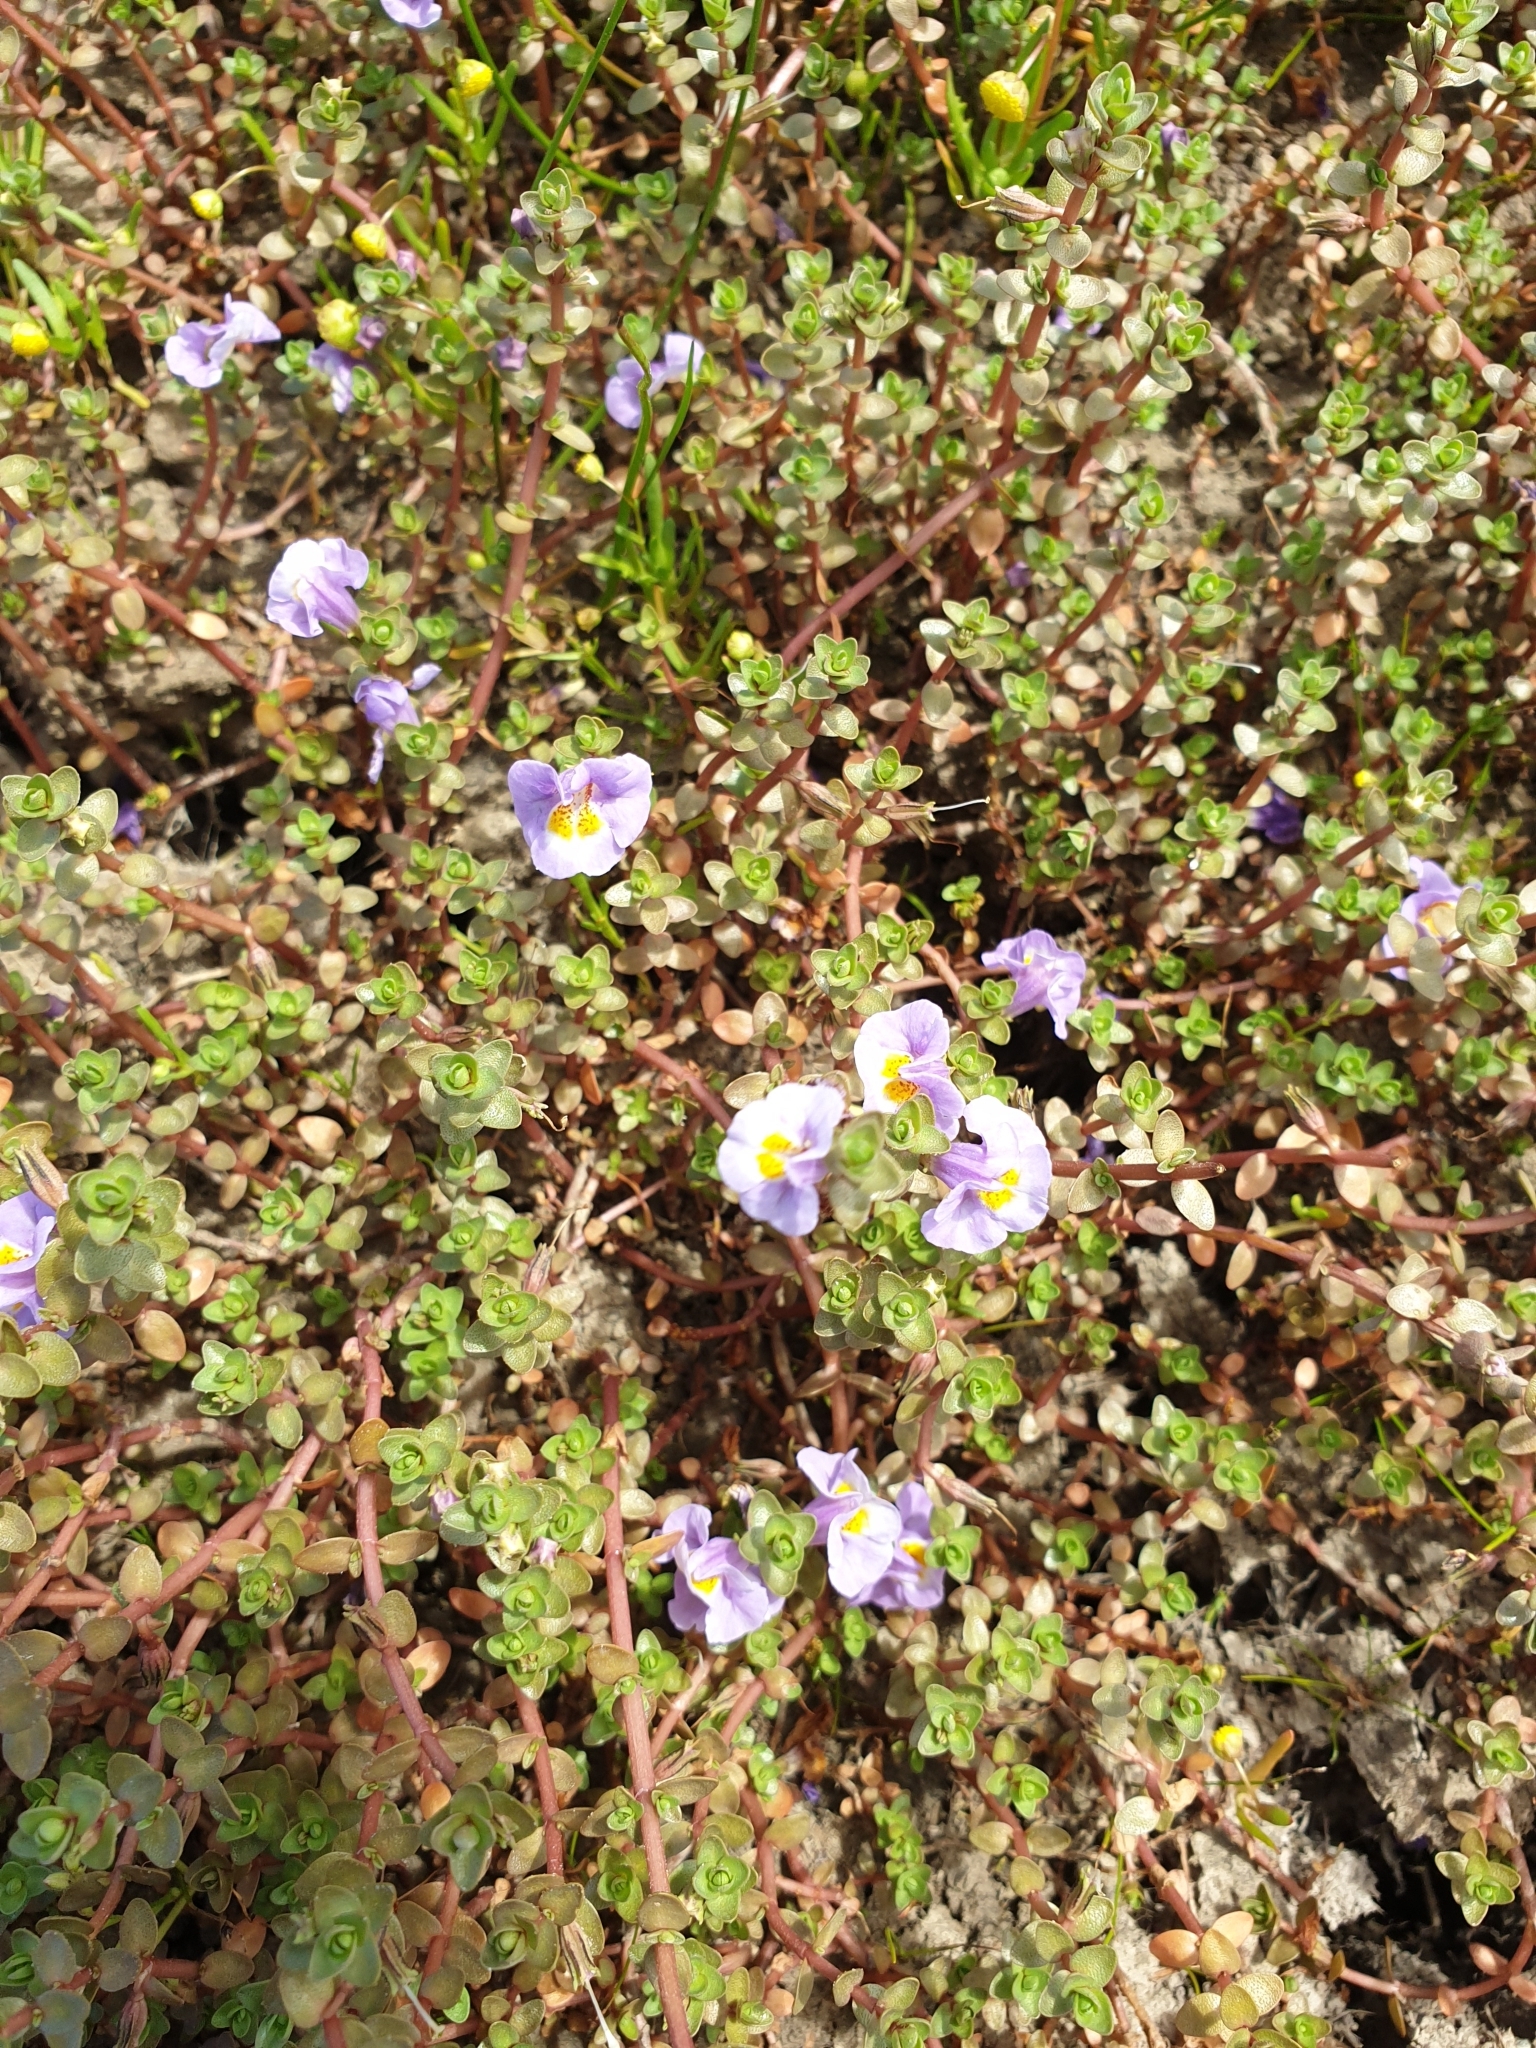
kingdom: Plantae
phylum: Tracheophyta
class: Magnoliopsida
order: Lamiales
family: Phrymaceae
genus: Thyridia
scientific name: Thyridia repens
